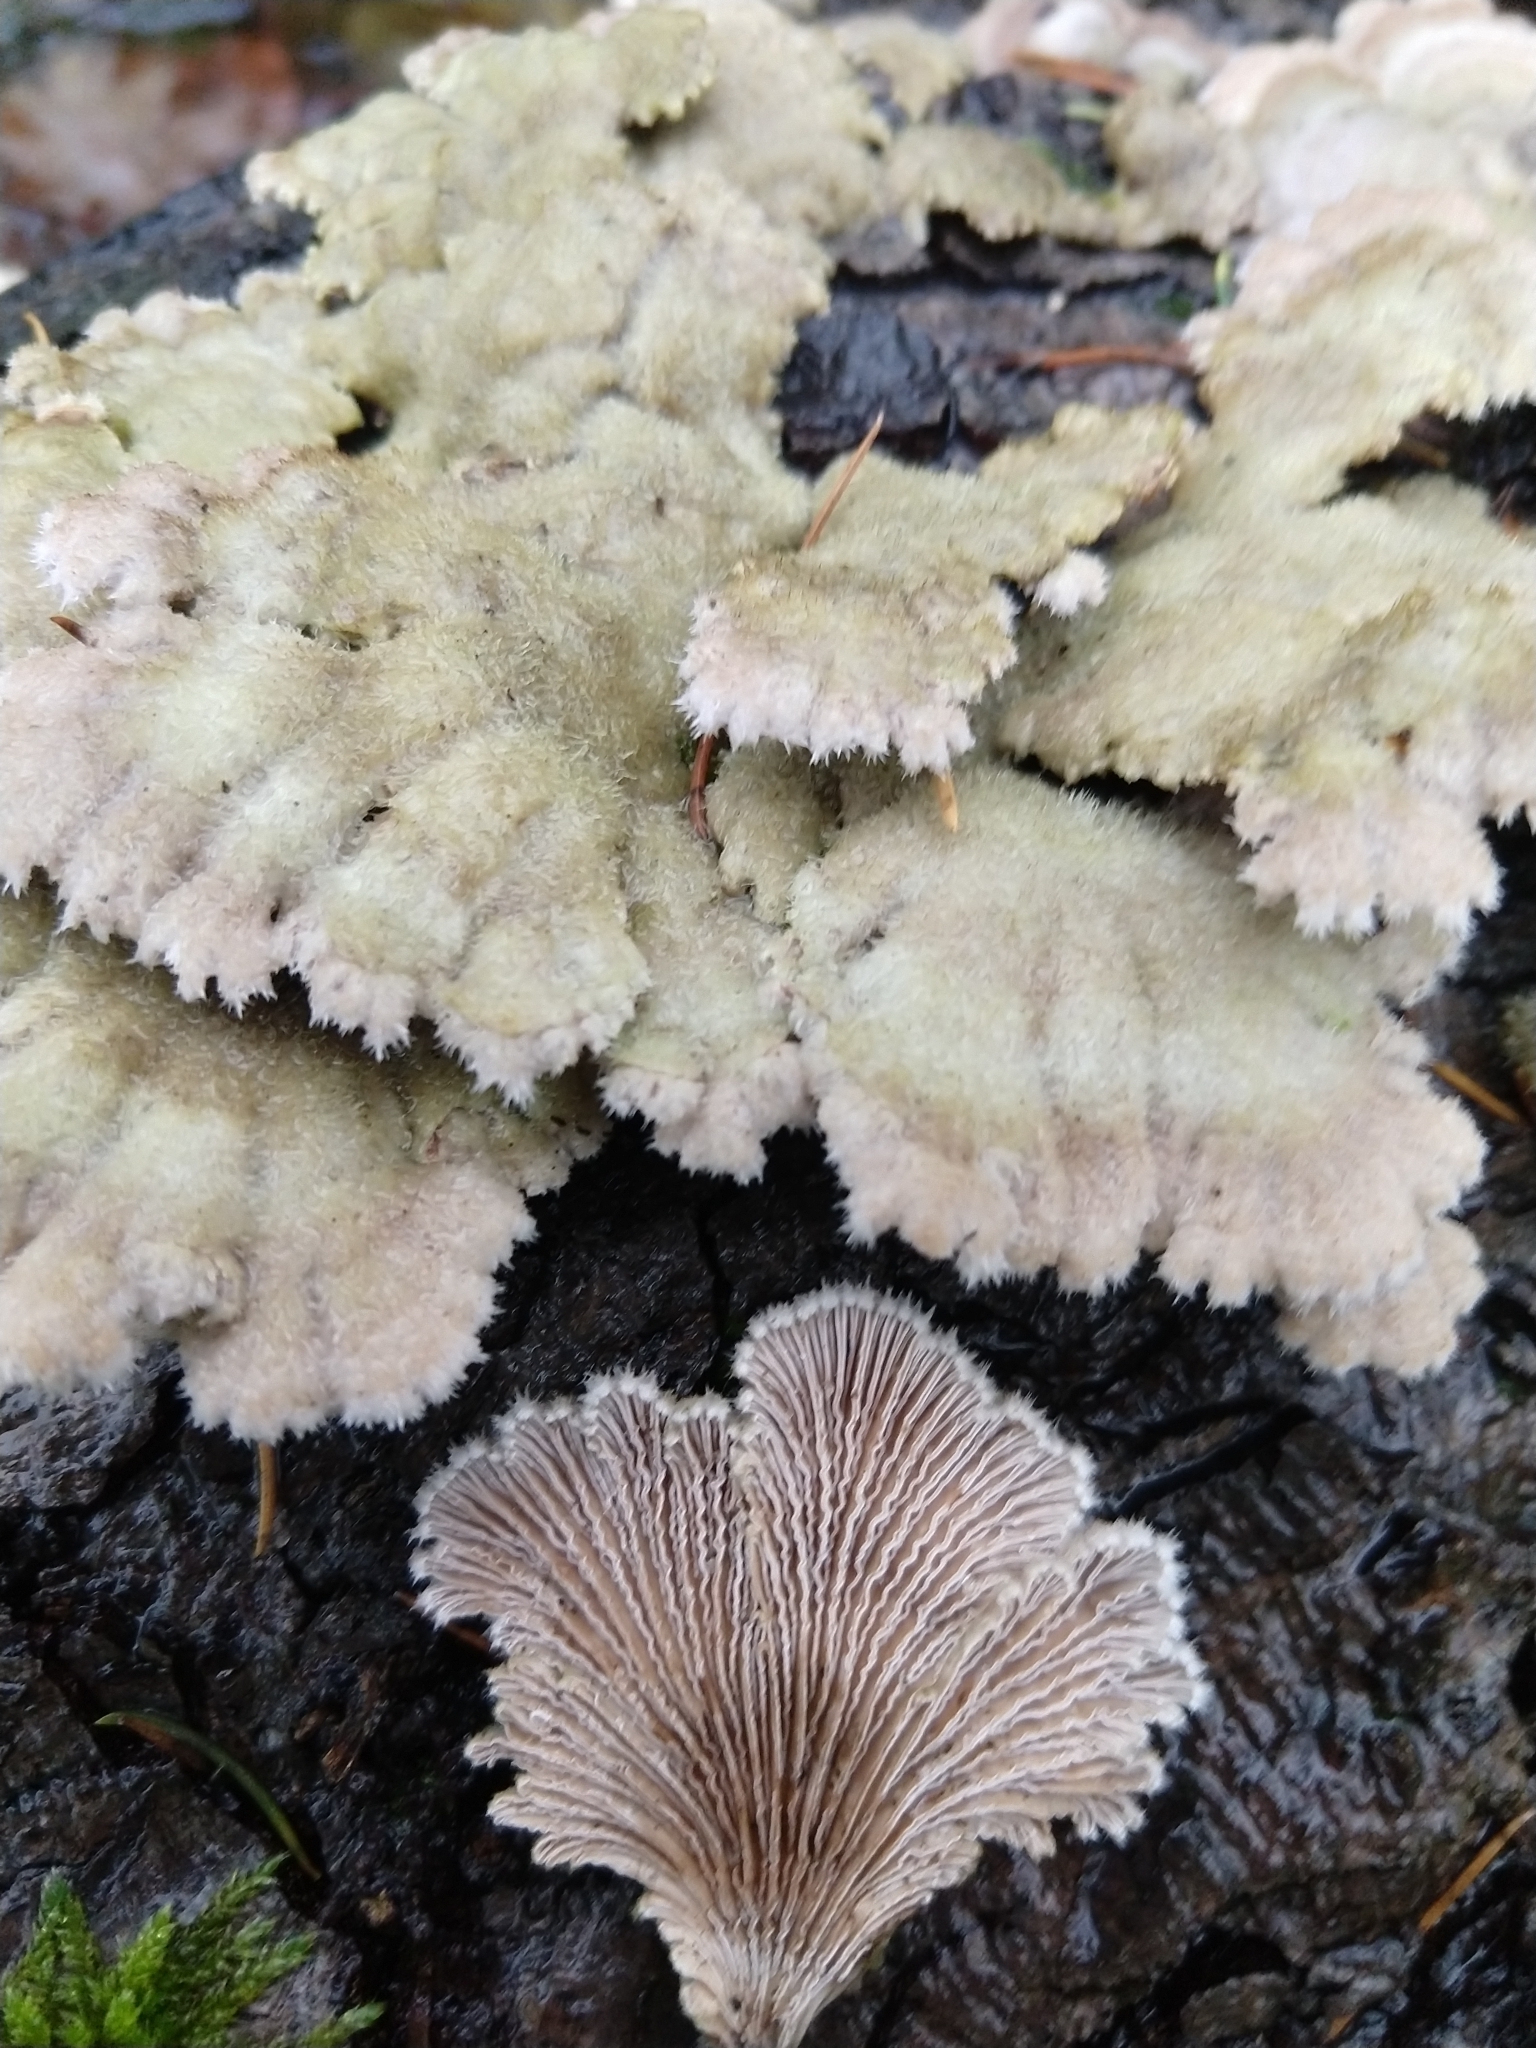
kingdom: Fungi
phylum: Basidiomycota
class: Agaricomycetes
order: Agaricales
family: Schizophyllaceae
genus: Schizophyllum
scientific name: Schizophyllum commune
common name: Common porecrust
